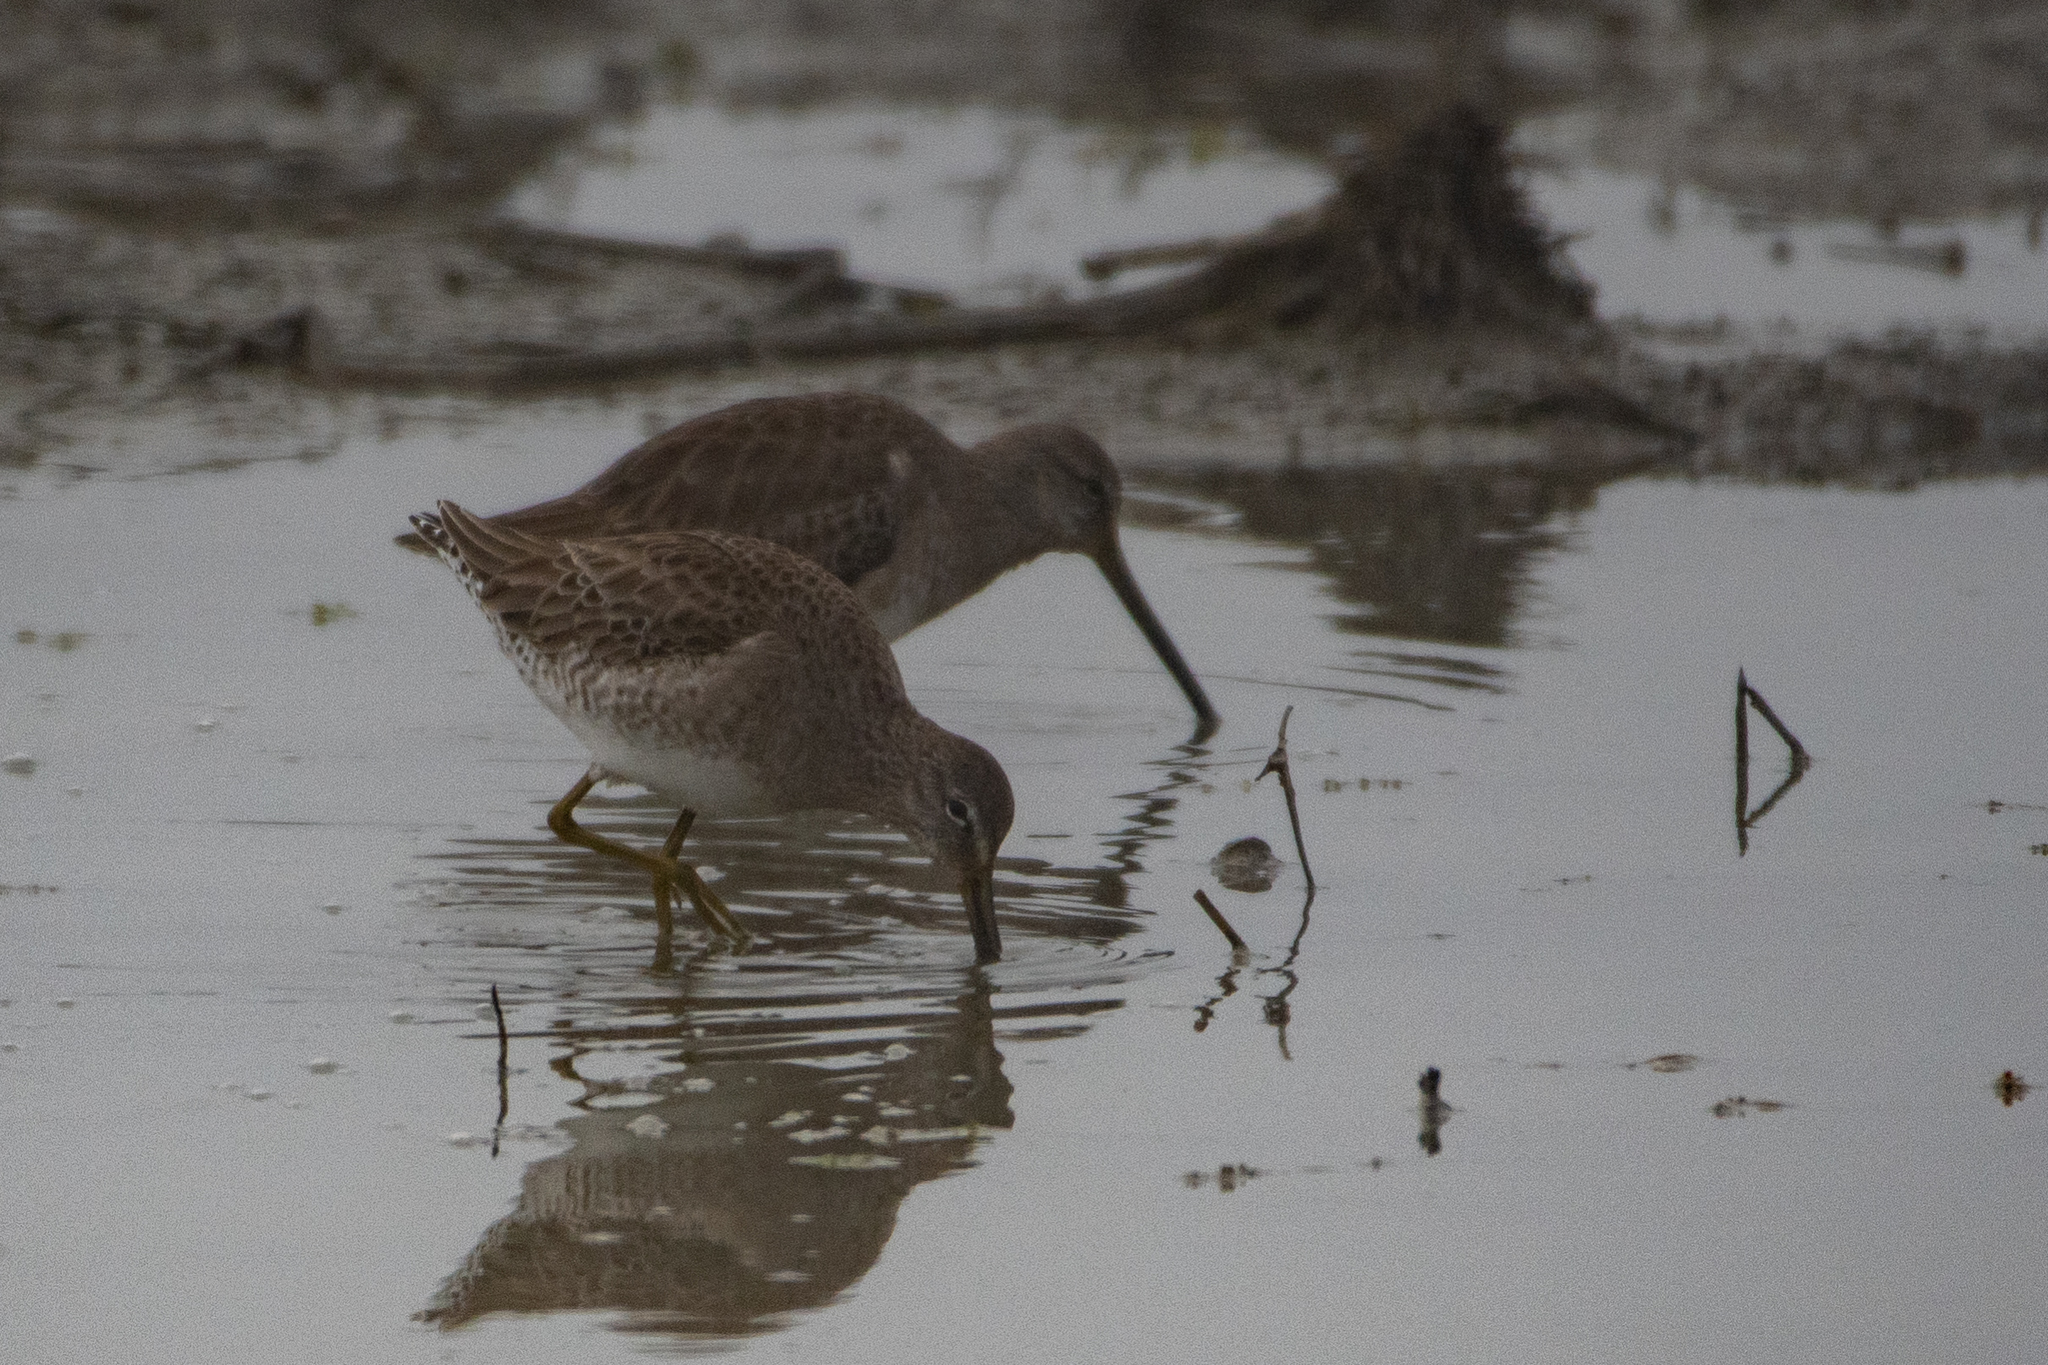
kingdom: Animalia
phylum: Chordata
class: Aves
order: Charadriiformes
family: Scolopacidae
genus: Limnodromus
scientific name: Limnodromus scolopaceus
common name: Long-billed dowitcher
